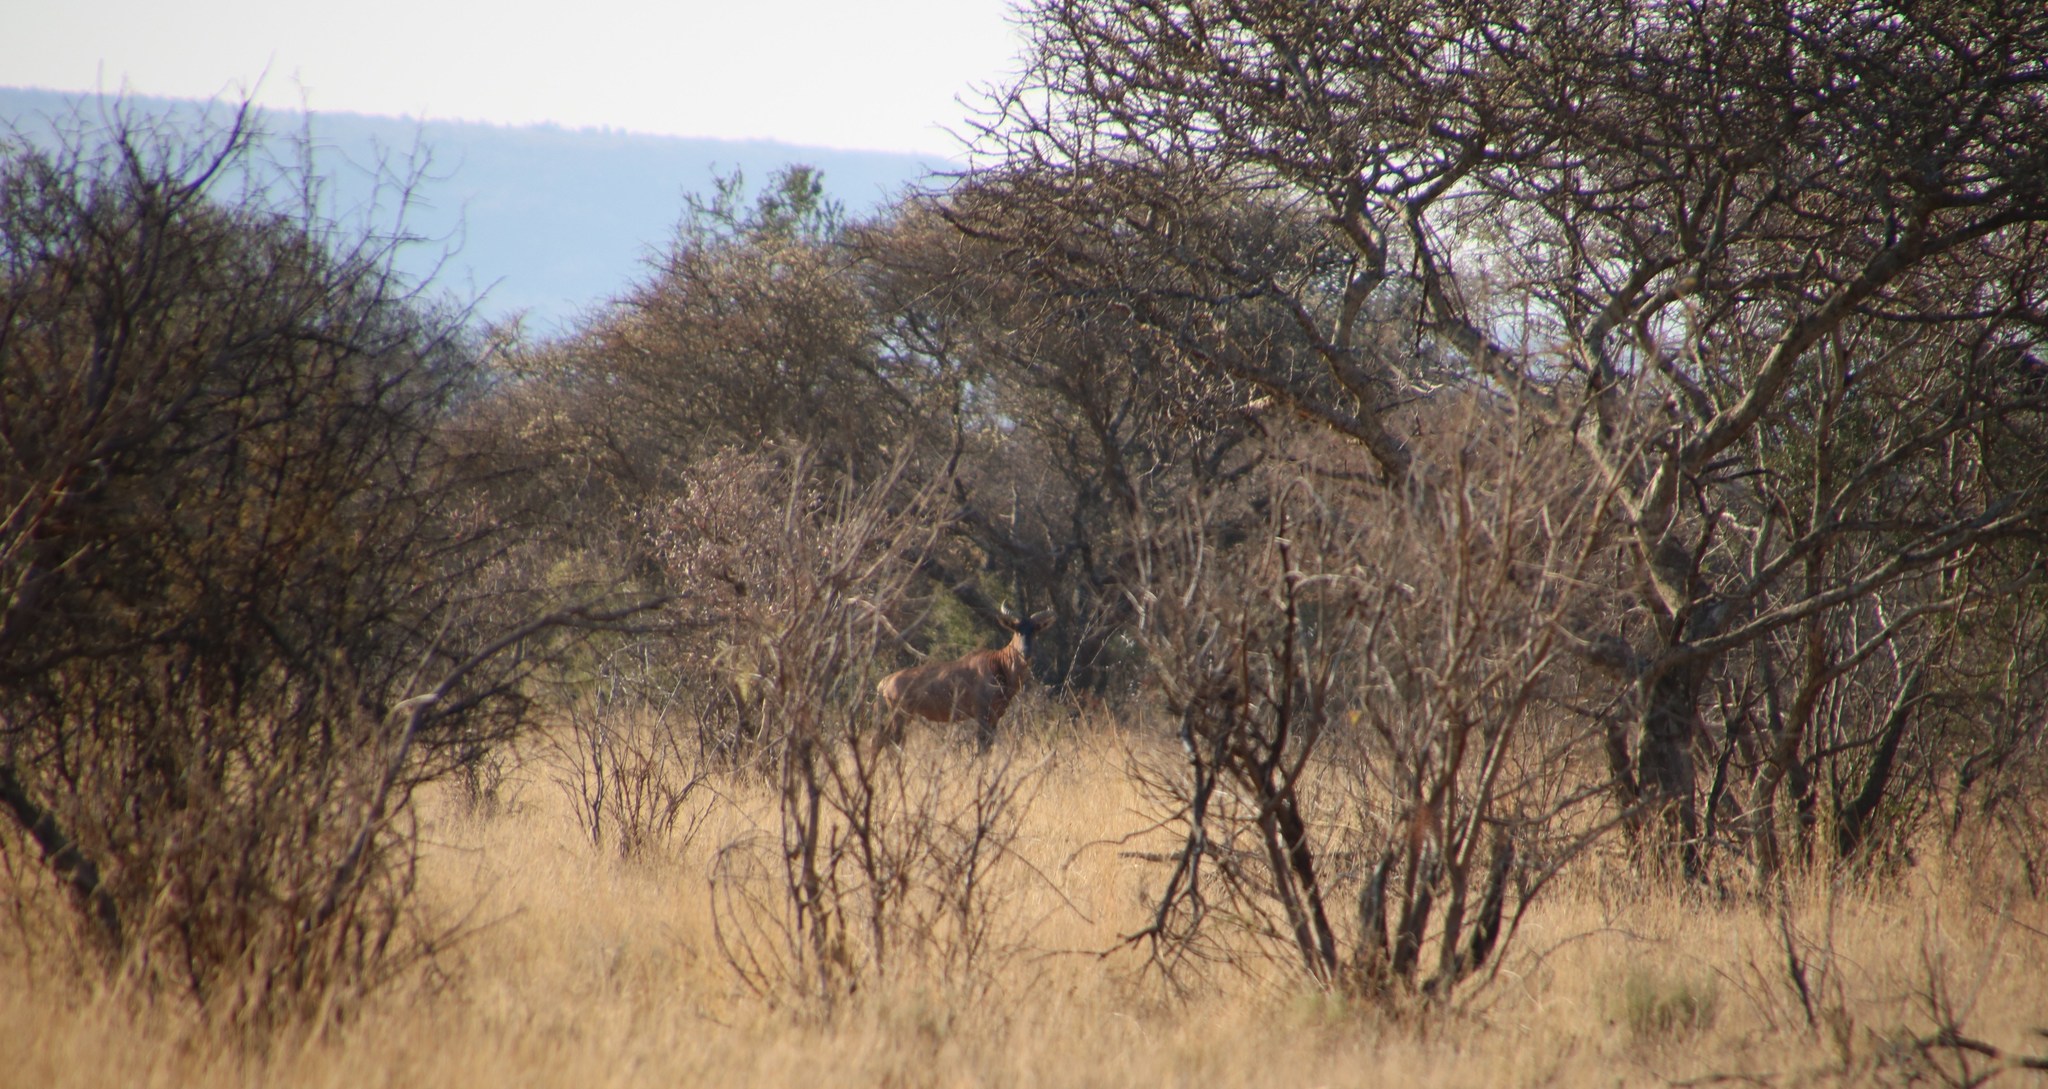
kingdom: Animalia
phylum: Chordata
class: Mammalia
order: Artiodactyla
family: Bovidae
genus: Damaliscus
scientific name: Damaliscus lunatus
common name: Common tsessebe
